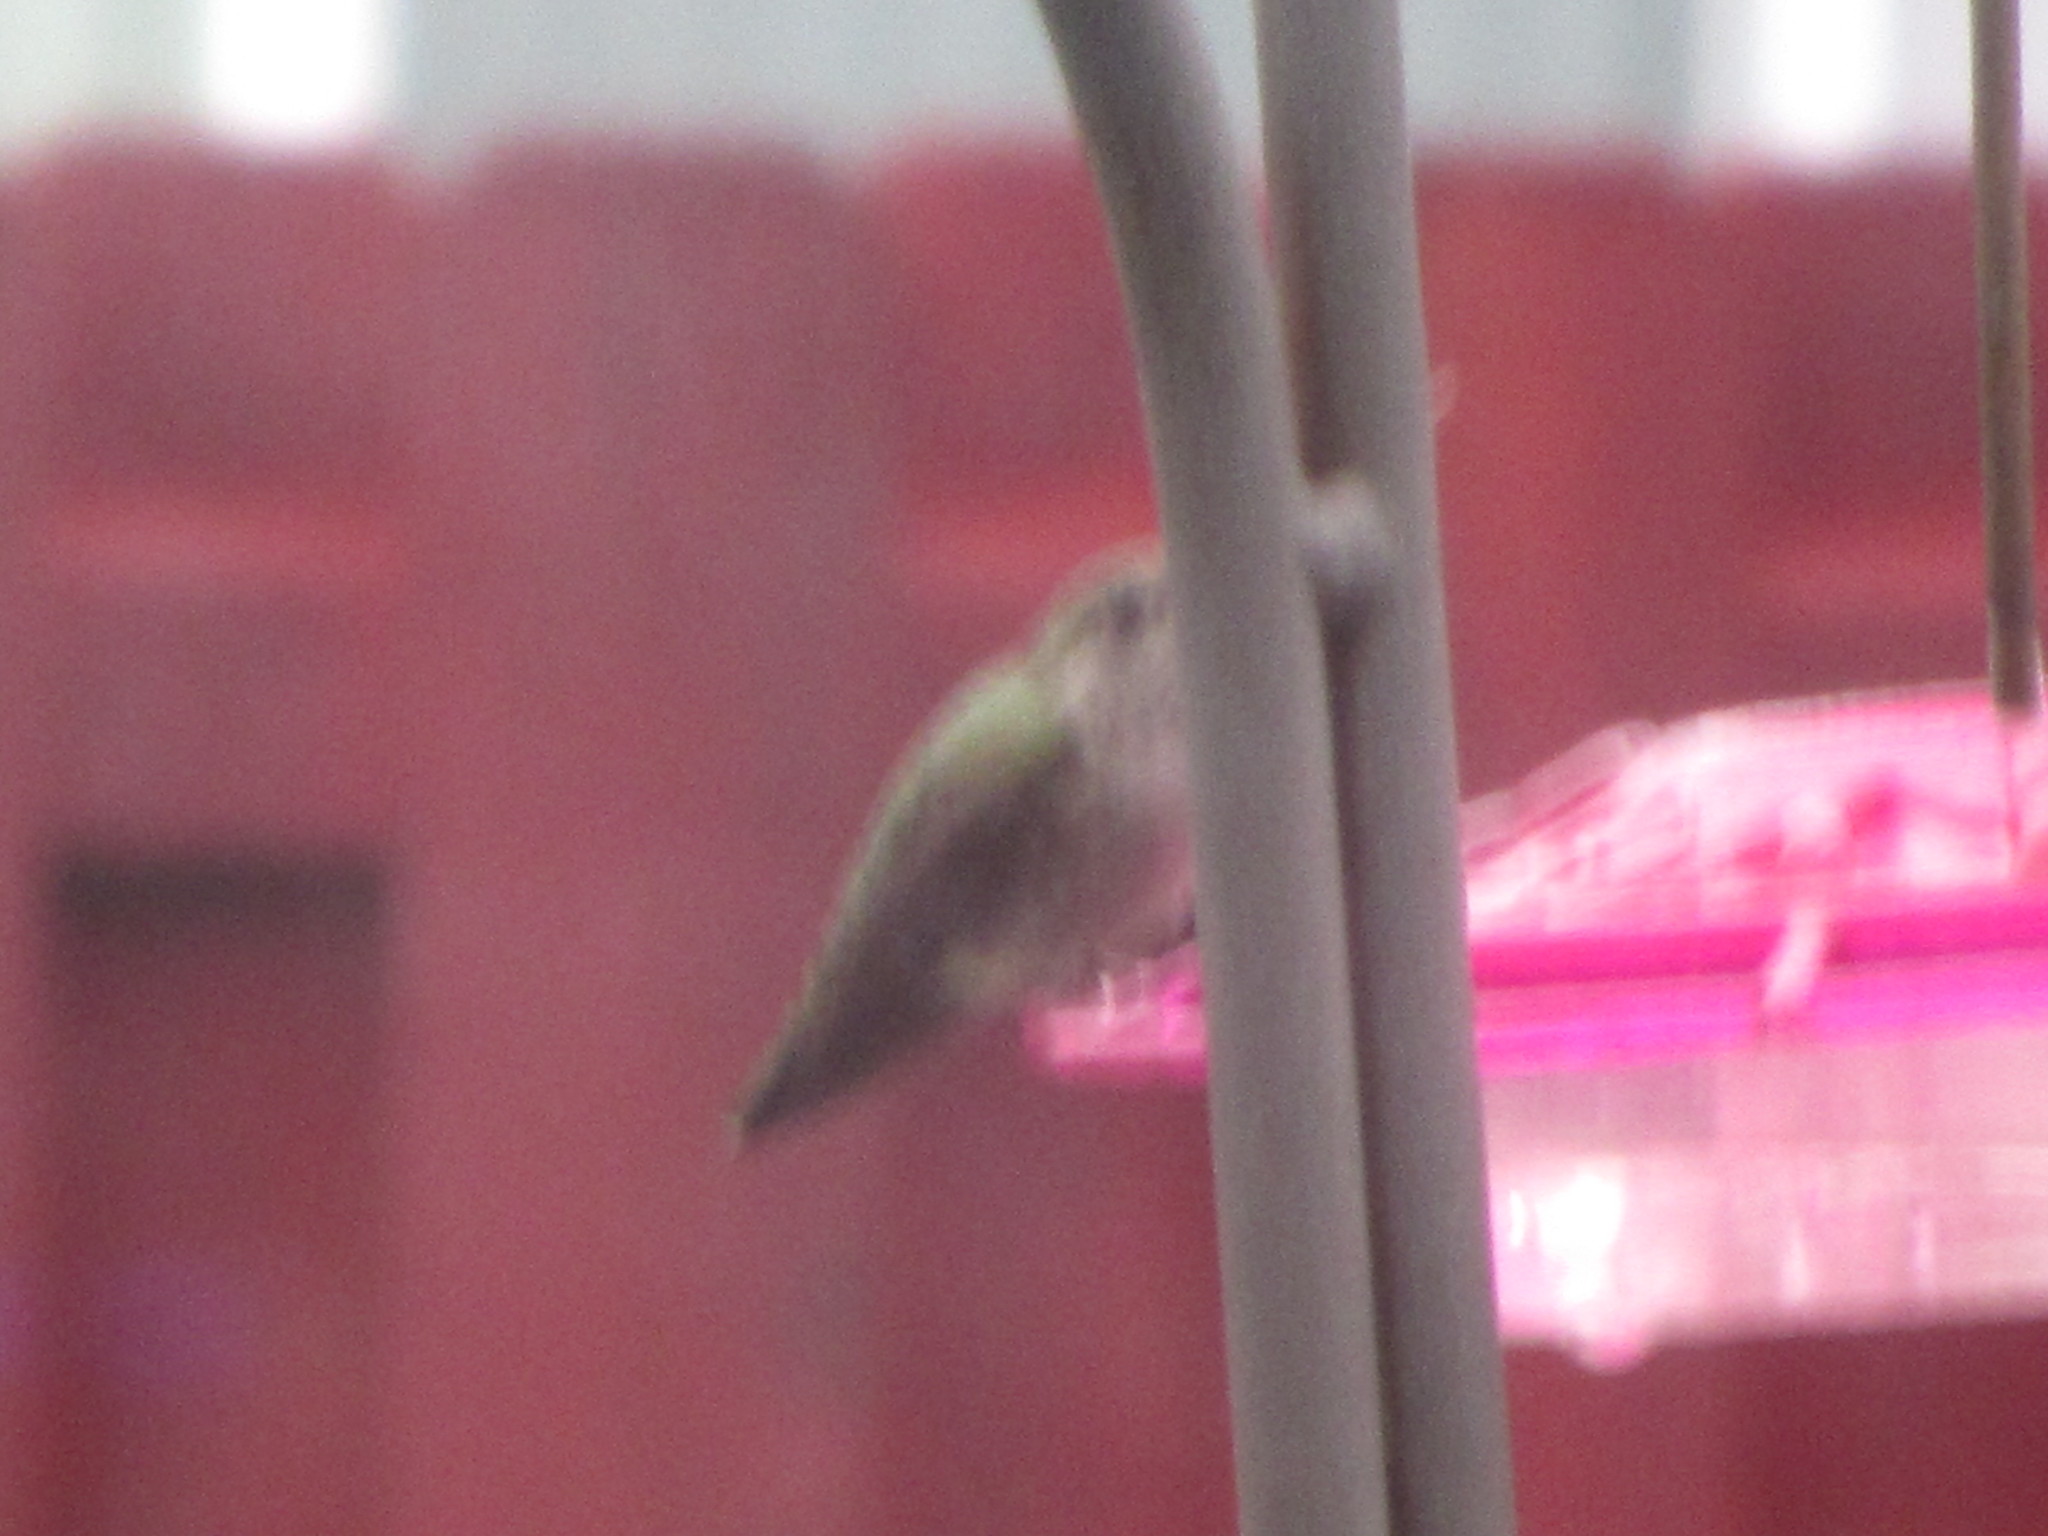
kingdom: Animalia
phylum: Chordata
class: Aves
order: Apodiformes
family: Trochilidae
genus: Calypte
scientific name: Calypte anna
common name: Anna's hummingbird
